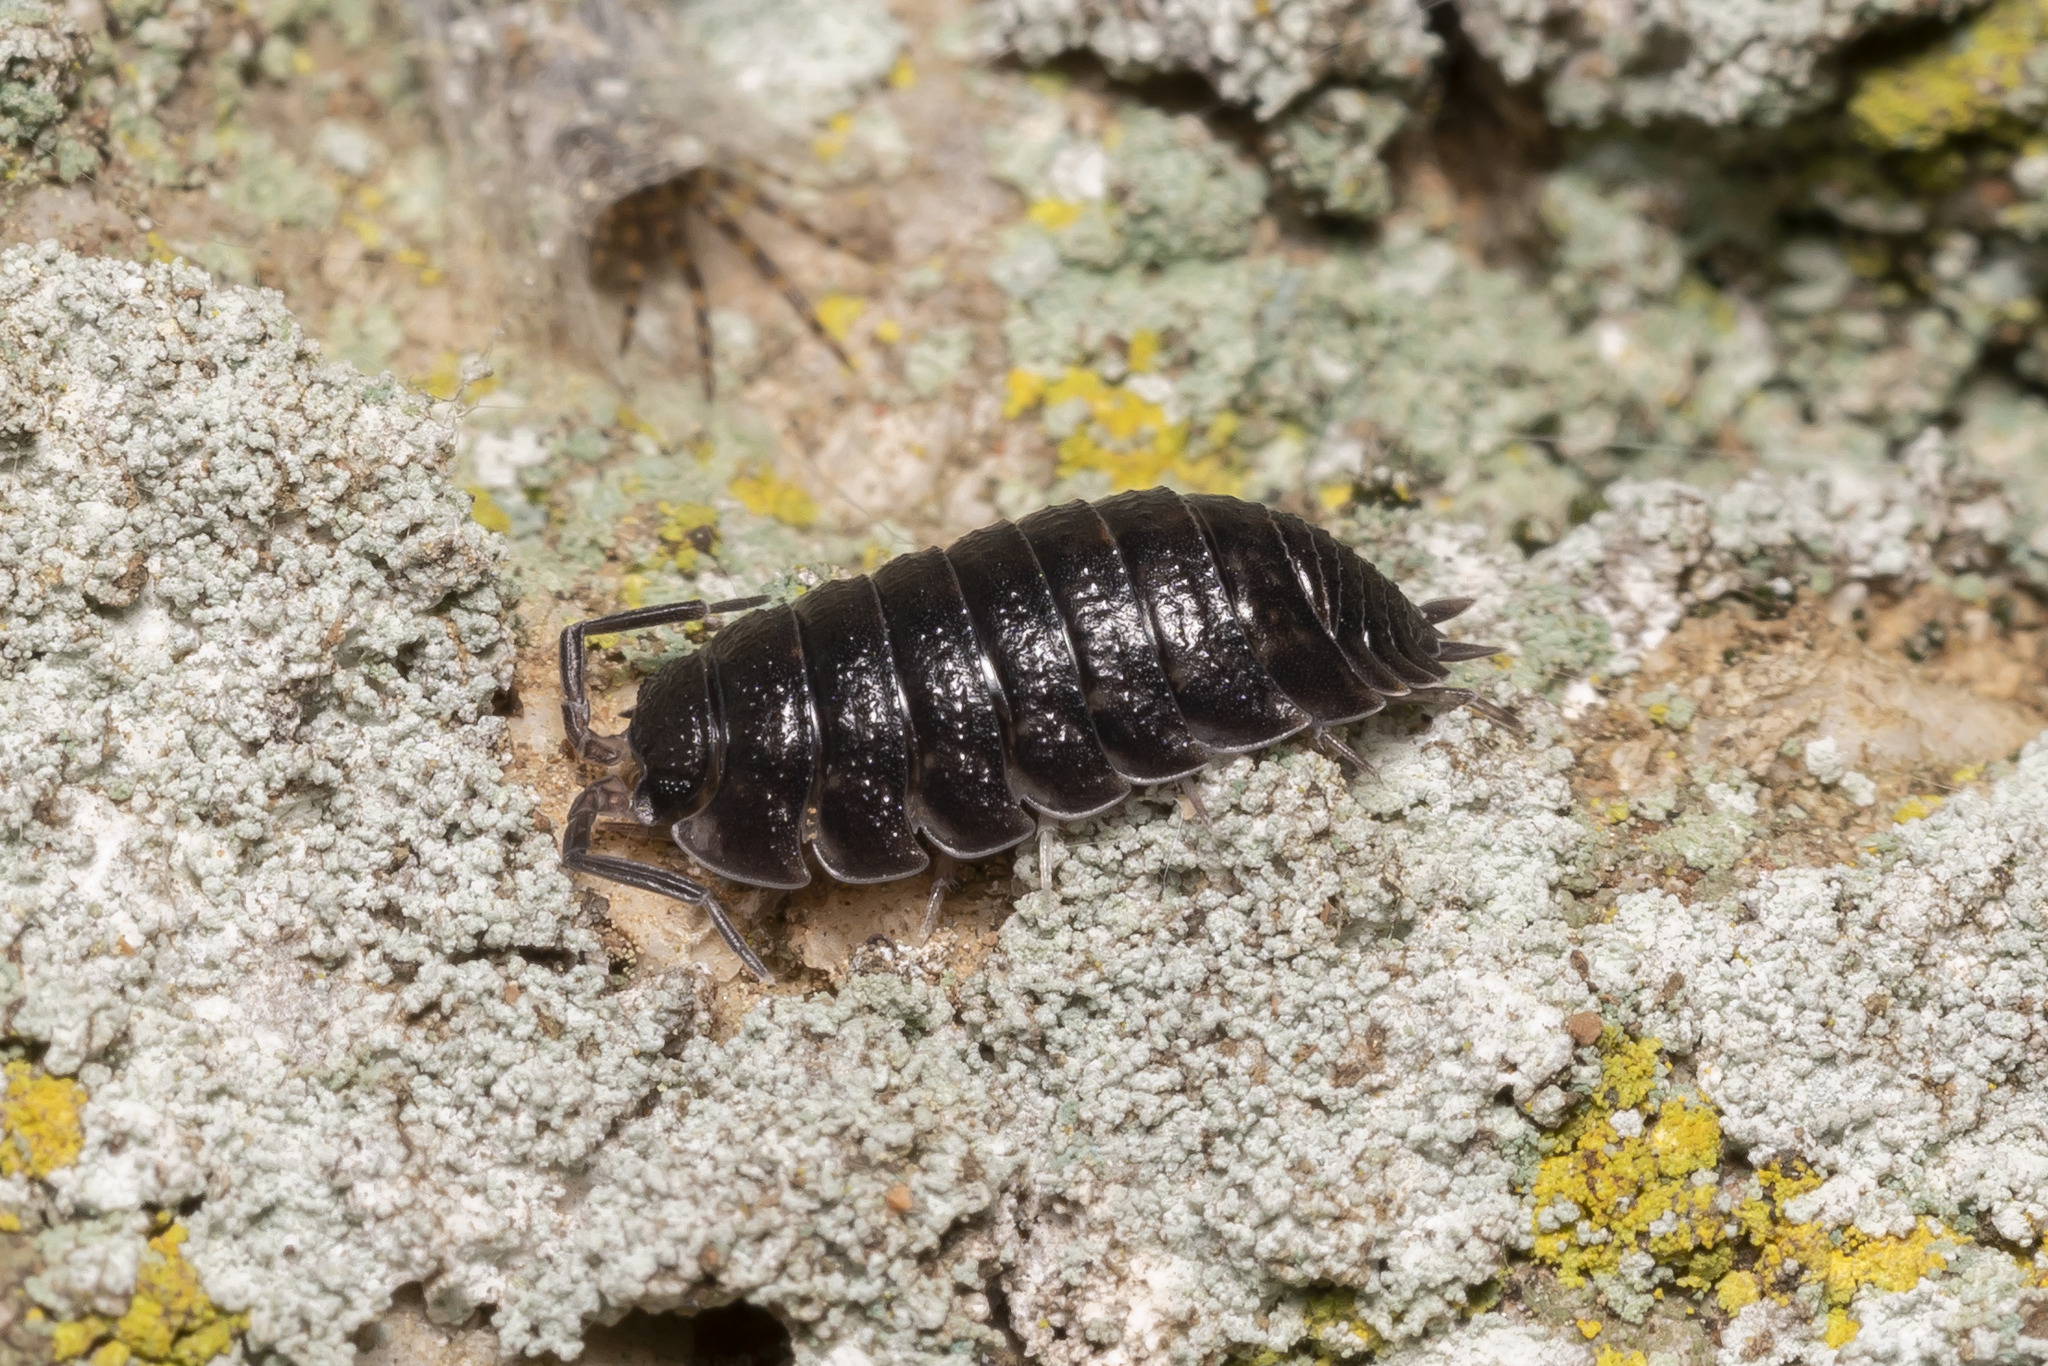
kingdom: Animalia
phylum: Arthropoda
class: Malacostraca
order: Isopoda
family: Porcellionidae
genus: Porcellio
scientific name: Porcellio obsoletus
